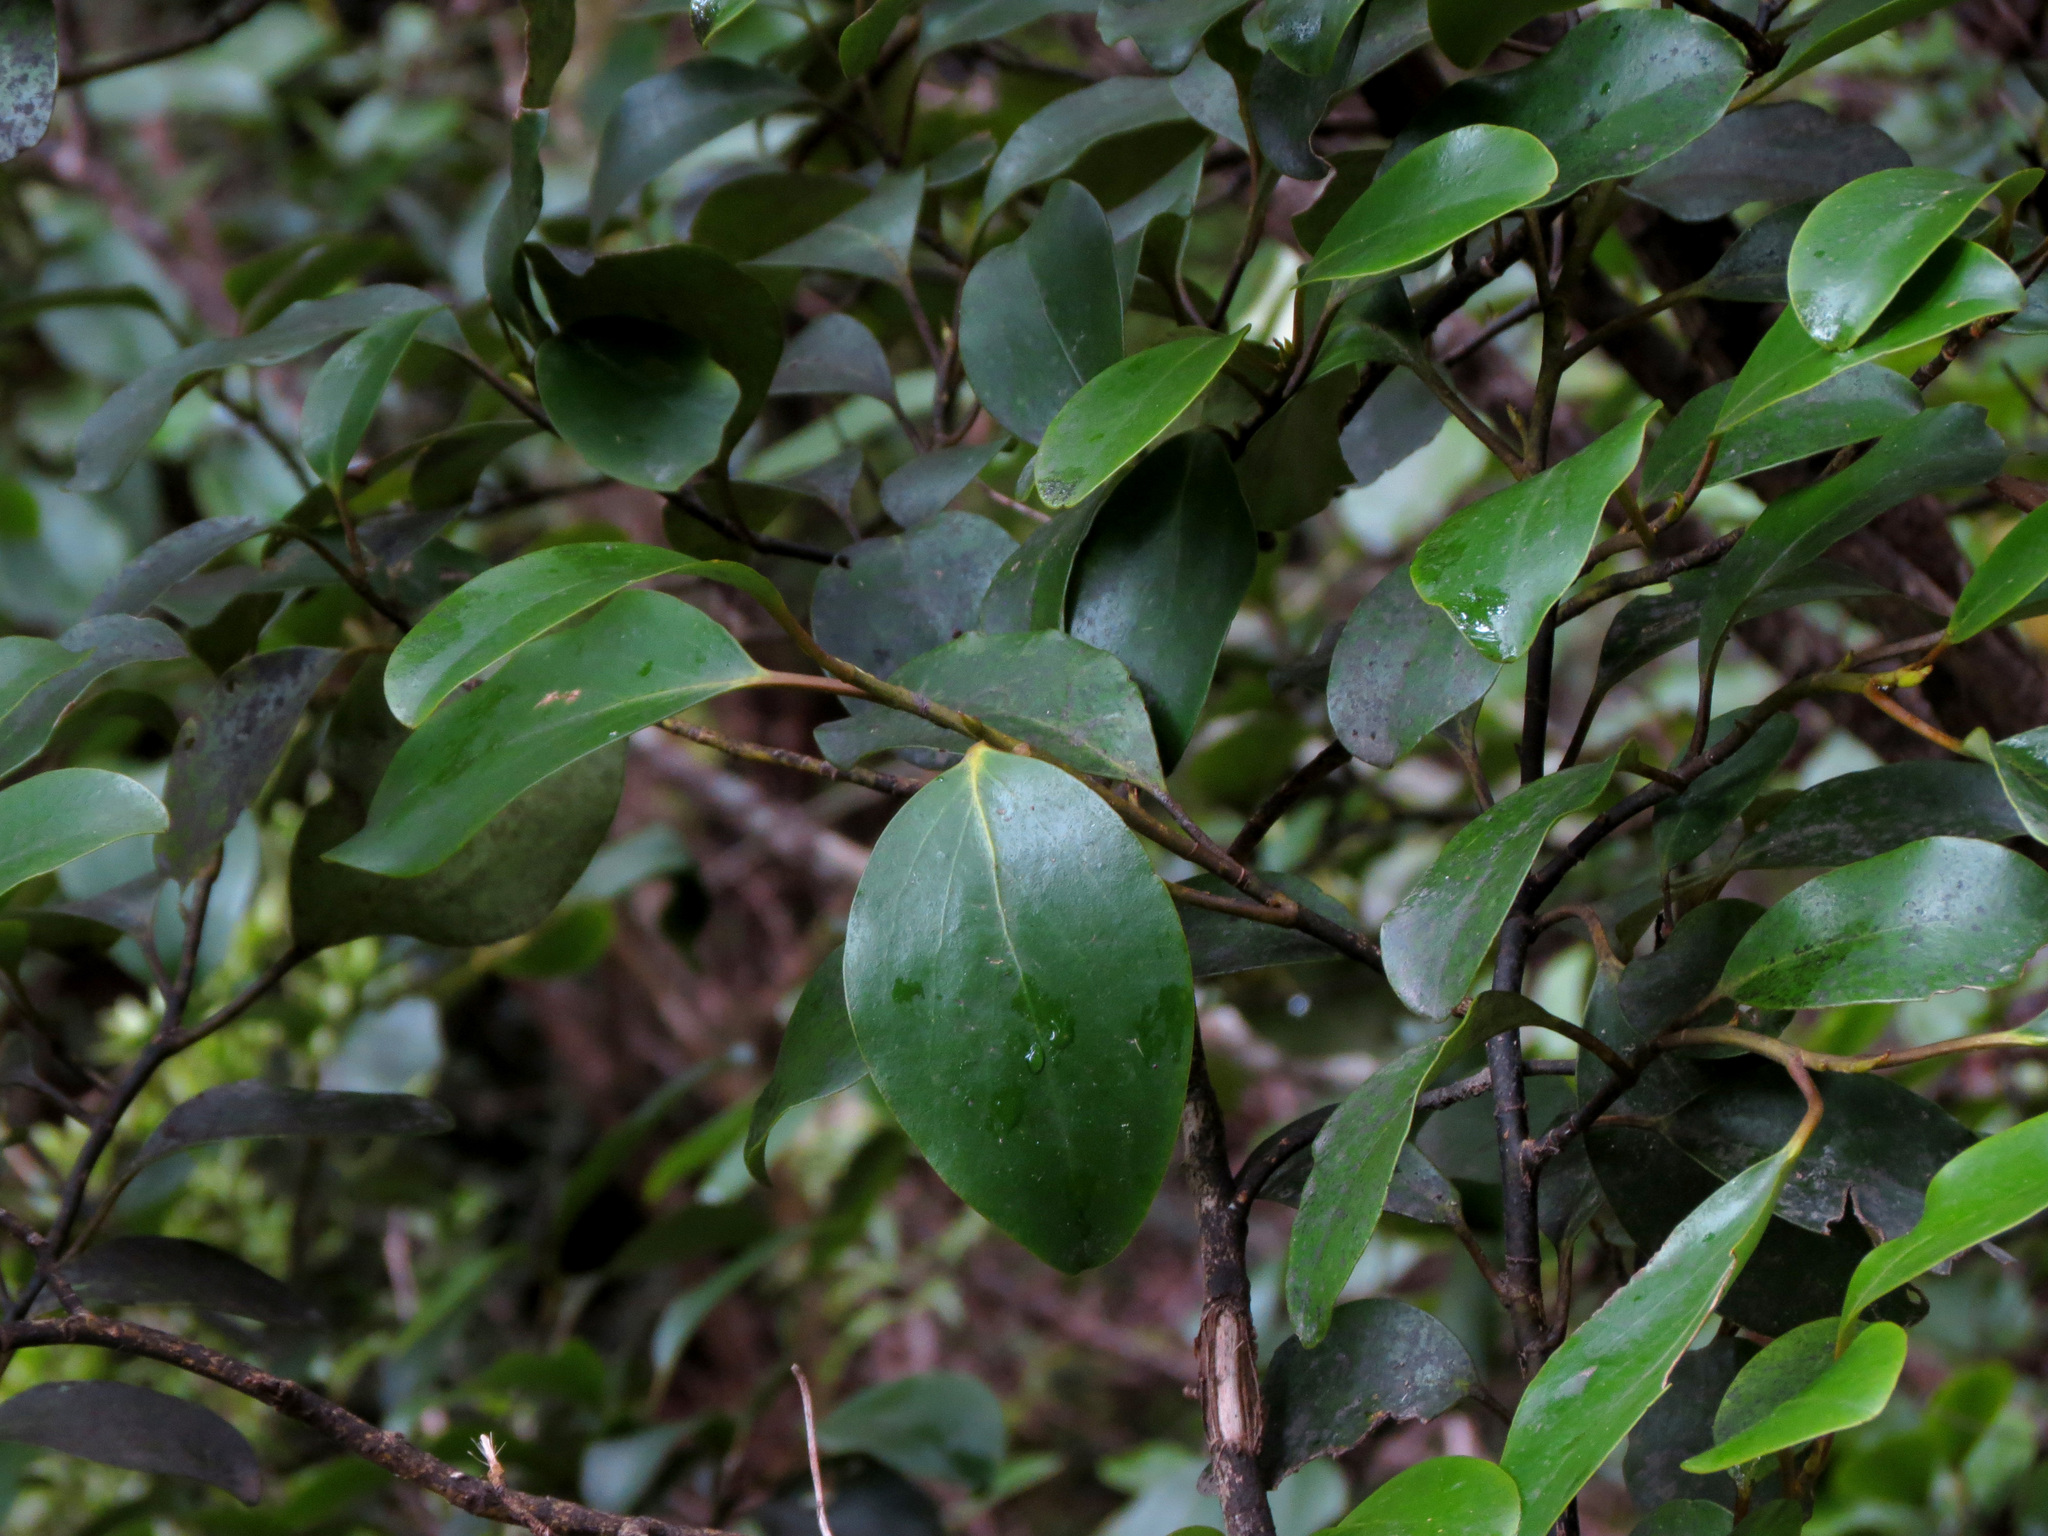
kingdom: Plantae
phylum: Tracheophyta
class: Magnoliopsida
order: Apiales
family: Griseliniaceae
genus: Griselinia
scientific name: Griselinia littoralis
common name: New zealand broadleaf
